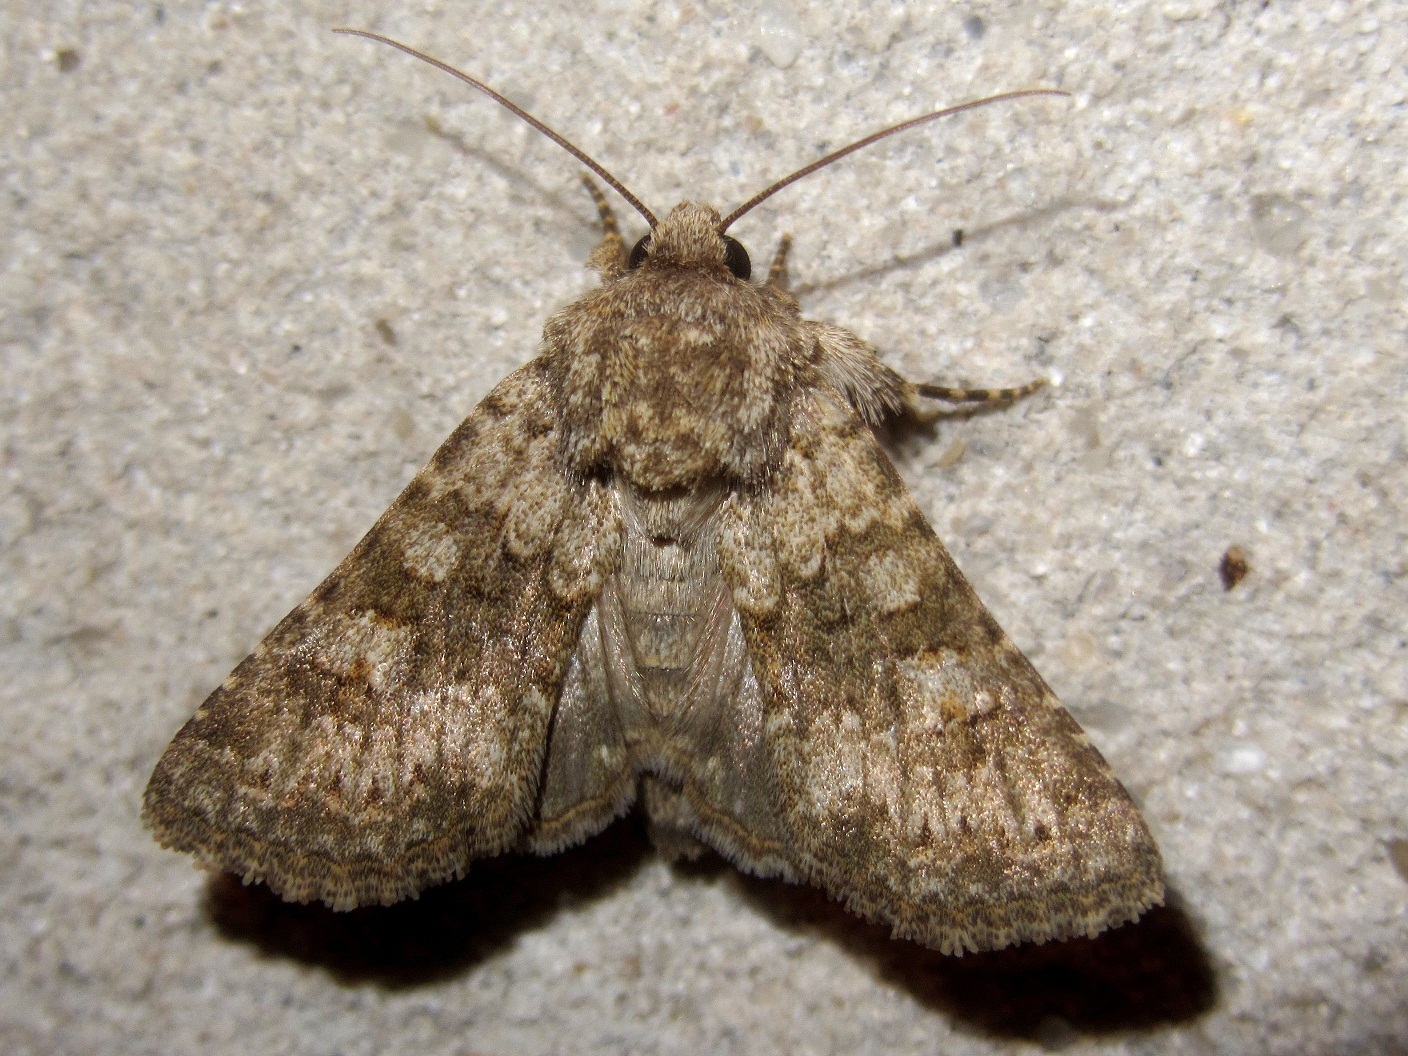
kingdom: Animalia
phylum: Arthropoda
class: Insecta
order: Lepidoptera
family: Noctuidae
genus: Hecatera
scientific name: Hecatera dysodea
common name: Small ranunculus
